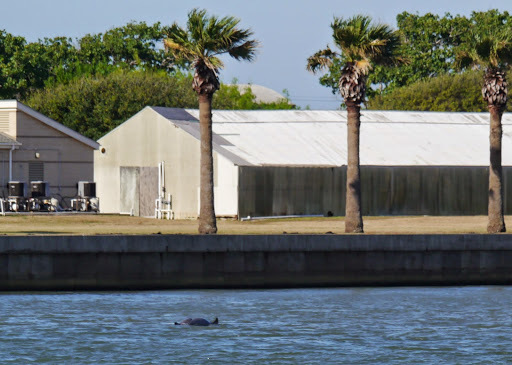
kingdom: Animalia
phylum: Chordata
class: Mammalia
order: Cetacea
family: Delphinidae
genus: Tursiops
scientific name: Tursiops truncatus
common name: Bottlenose dolphin
